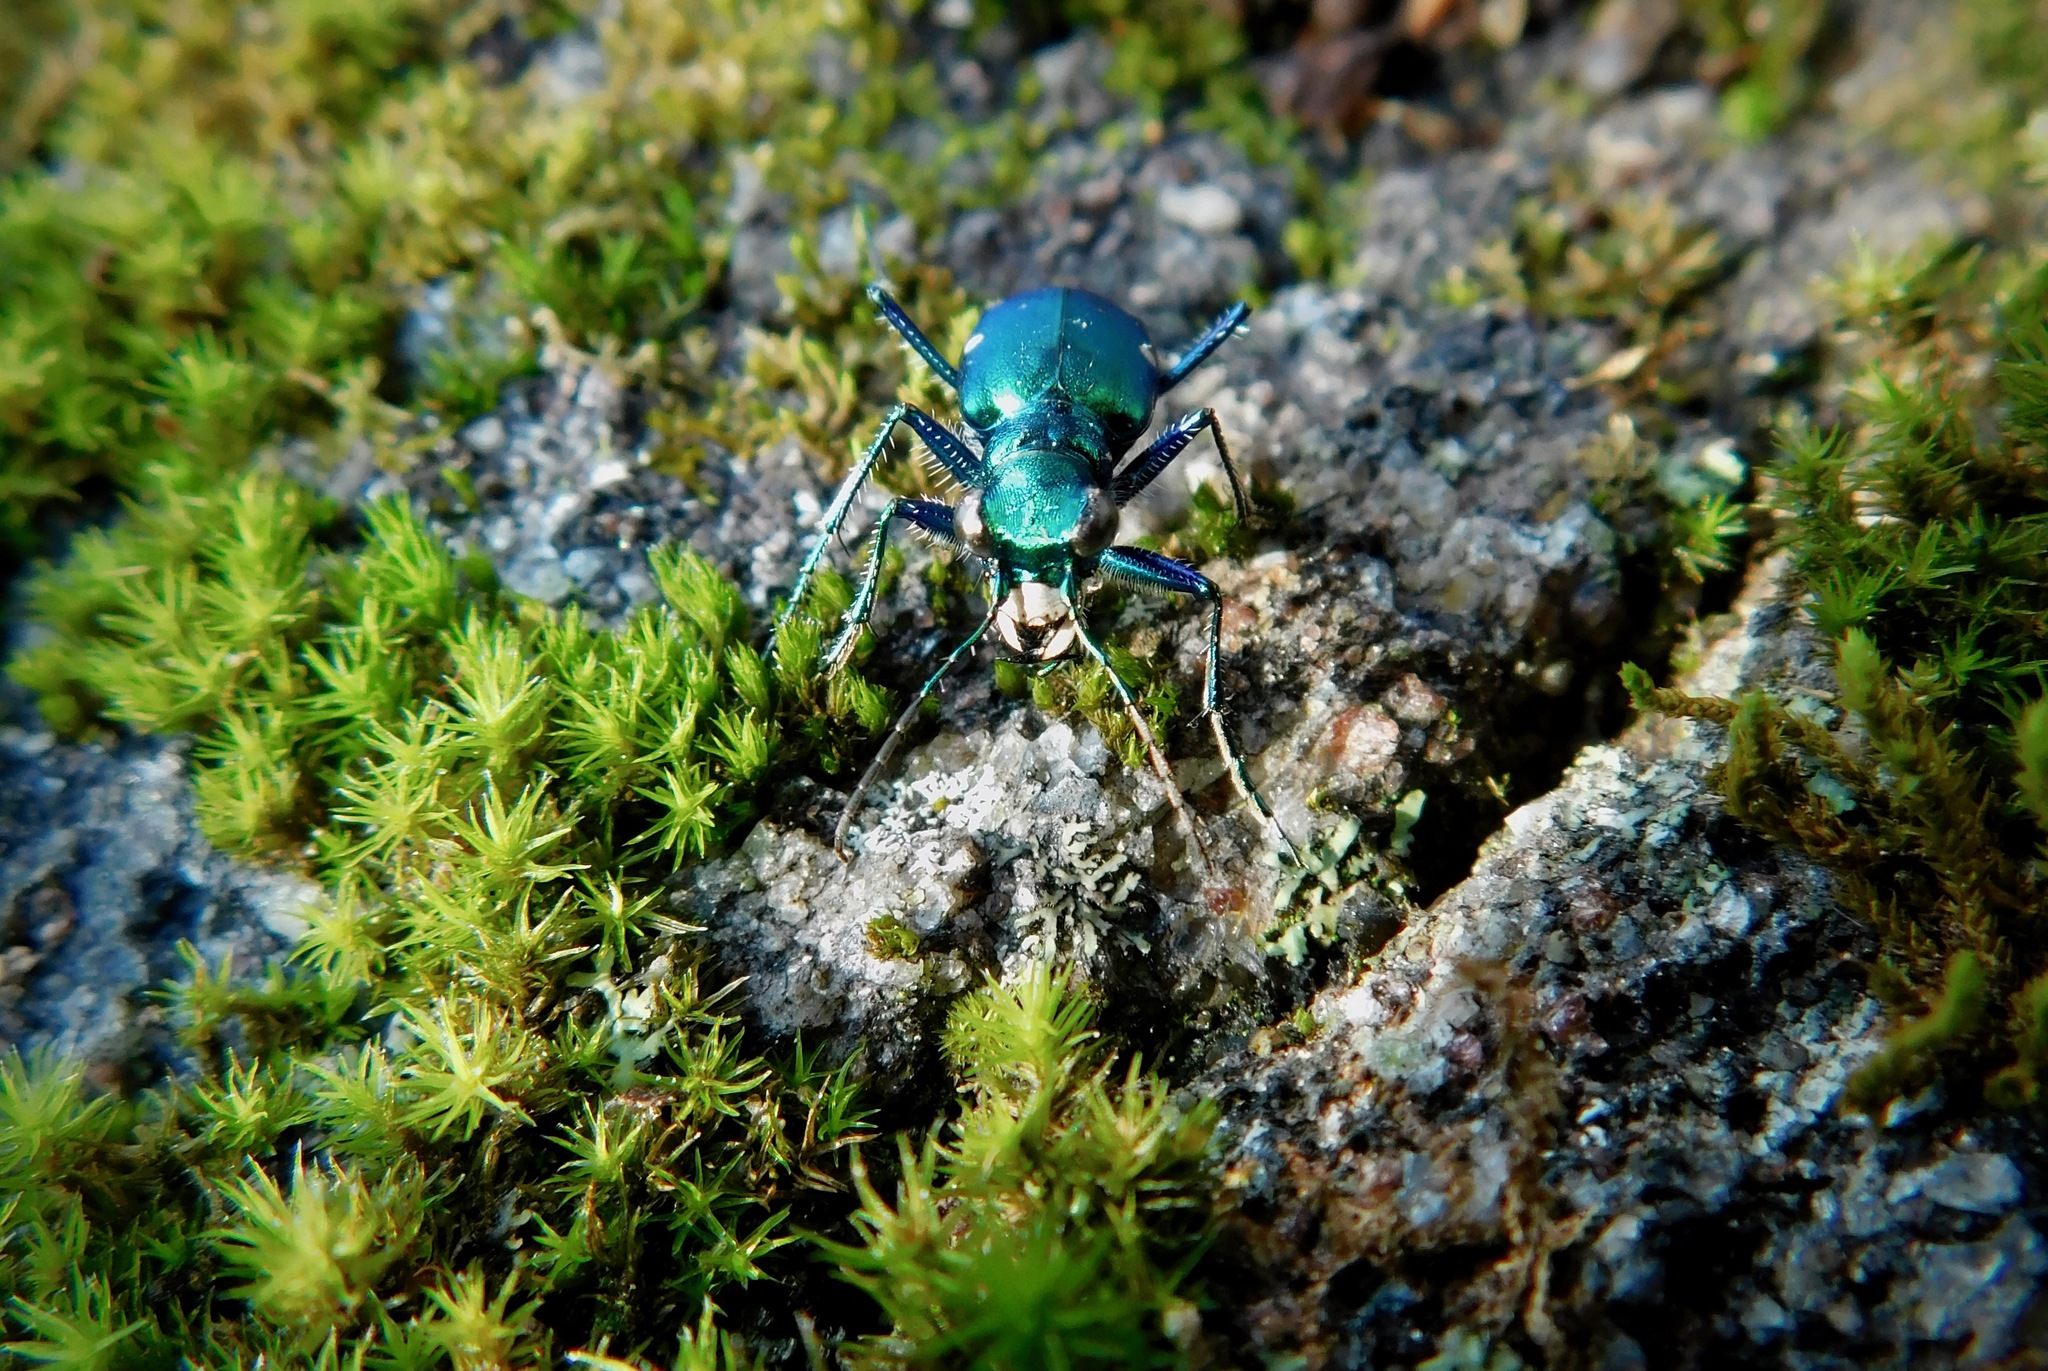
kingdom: Animalia
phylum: Arthropoda
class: Insecta
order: Coleoptera
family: Carabidae
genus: Cicindela
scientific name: Cicindela sexguttata
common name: Six-spotted tiger beetle
